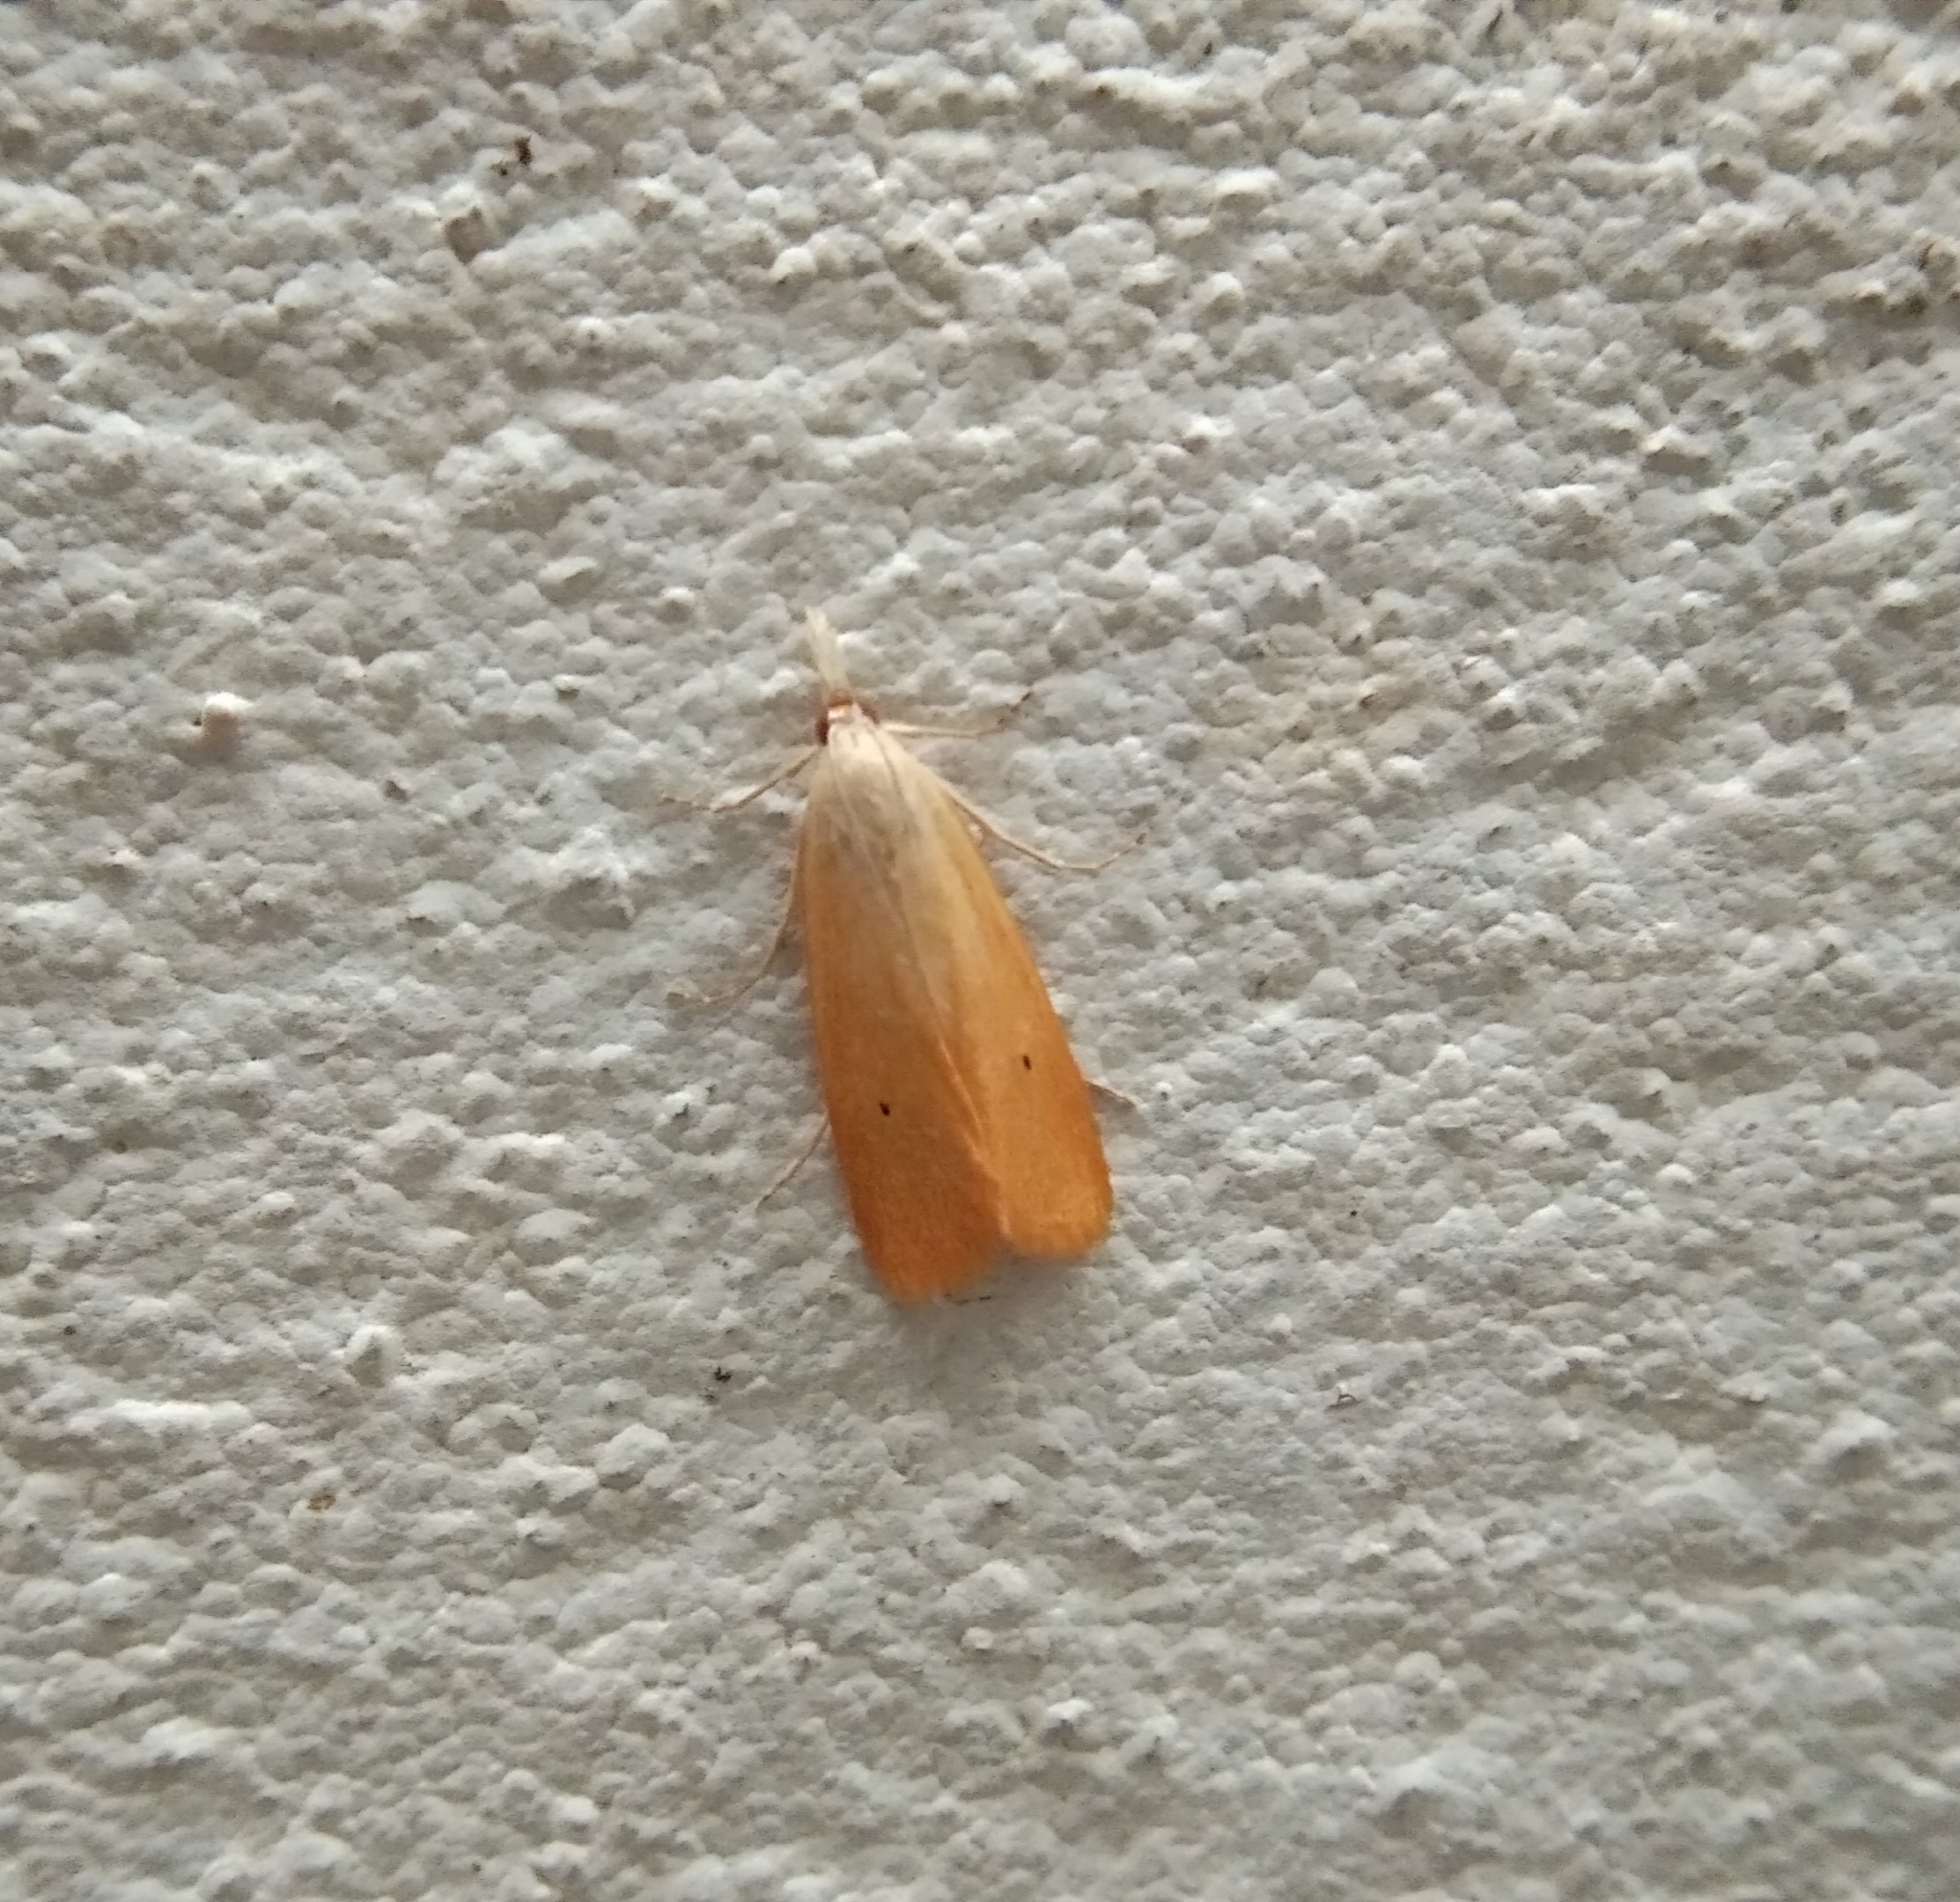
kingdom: Animalia
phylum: Arthropoda
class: Insecta
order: Lepidoptera
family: Crambidae
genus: Scirpophaga
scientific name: Scirpophaga incertulas
